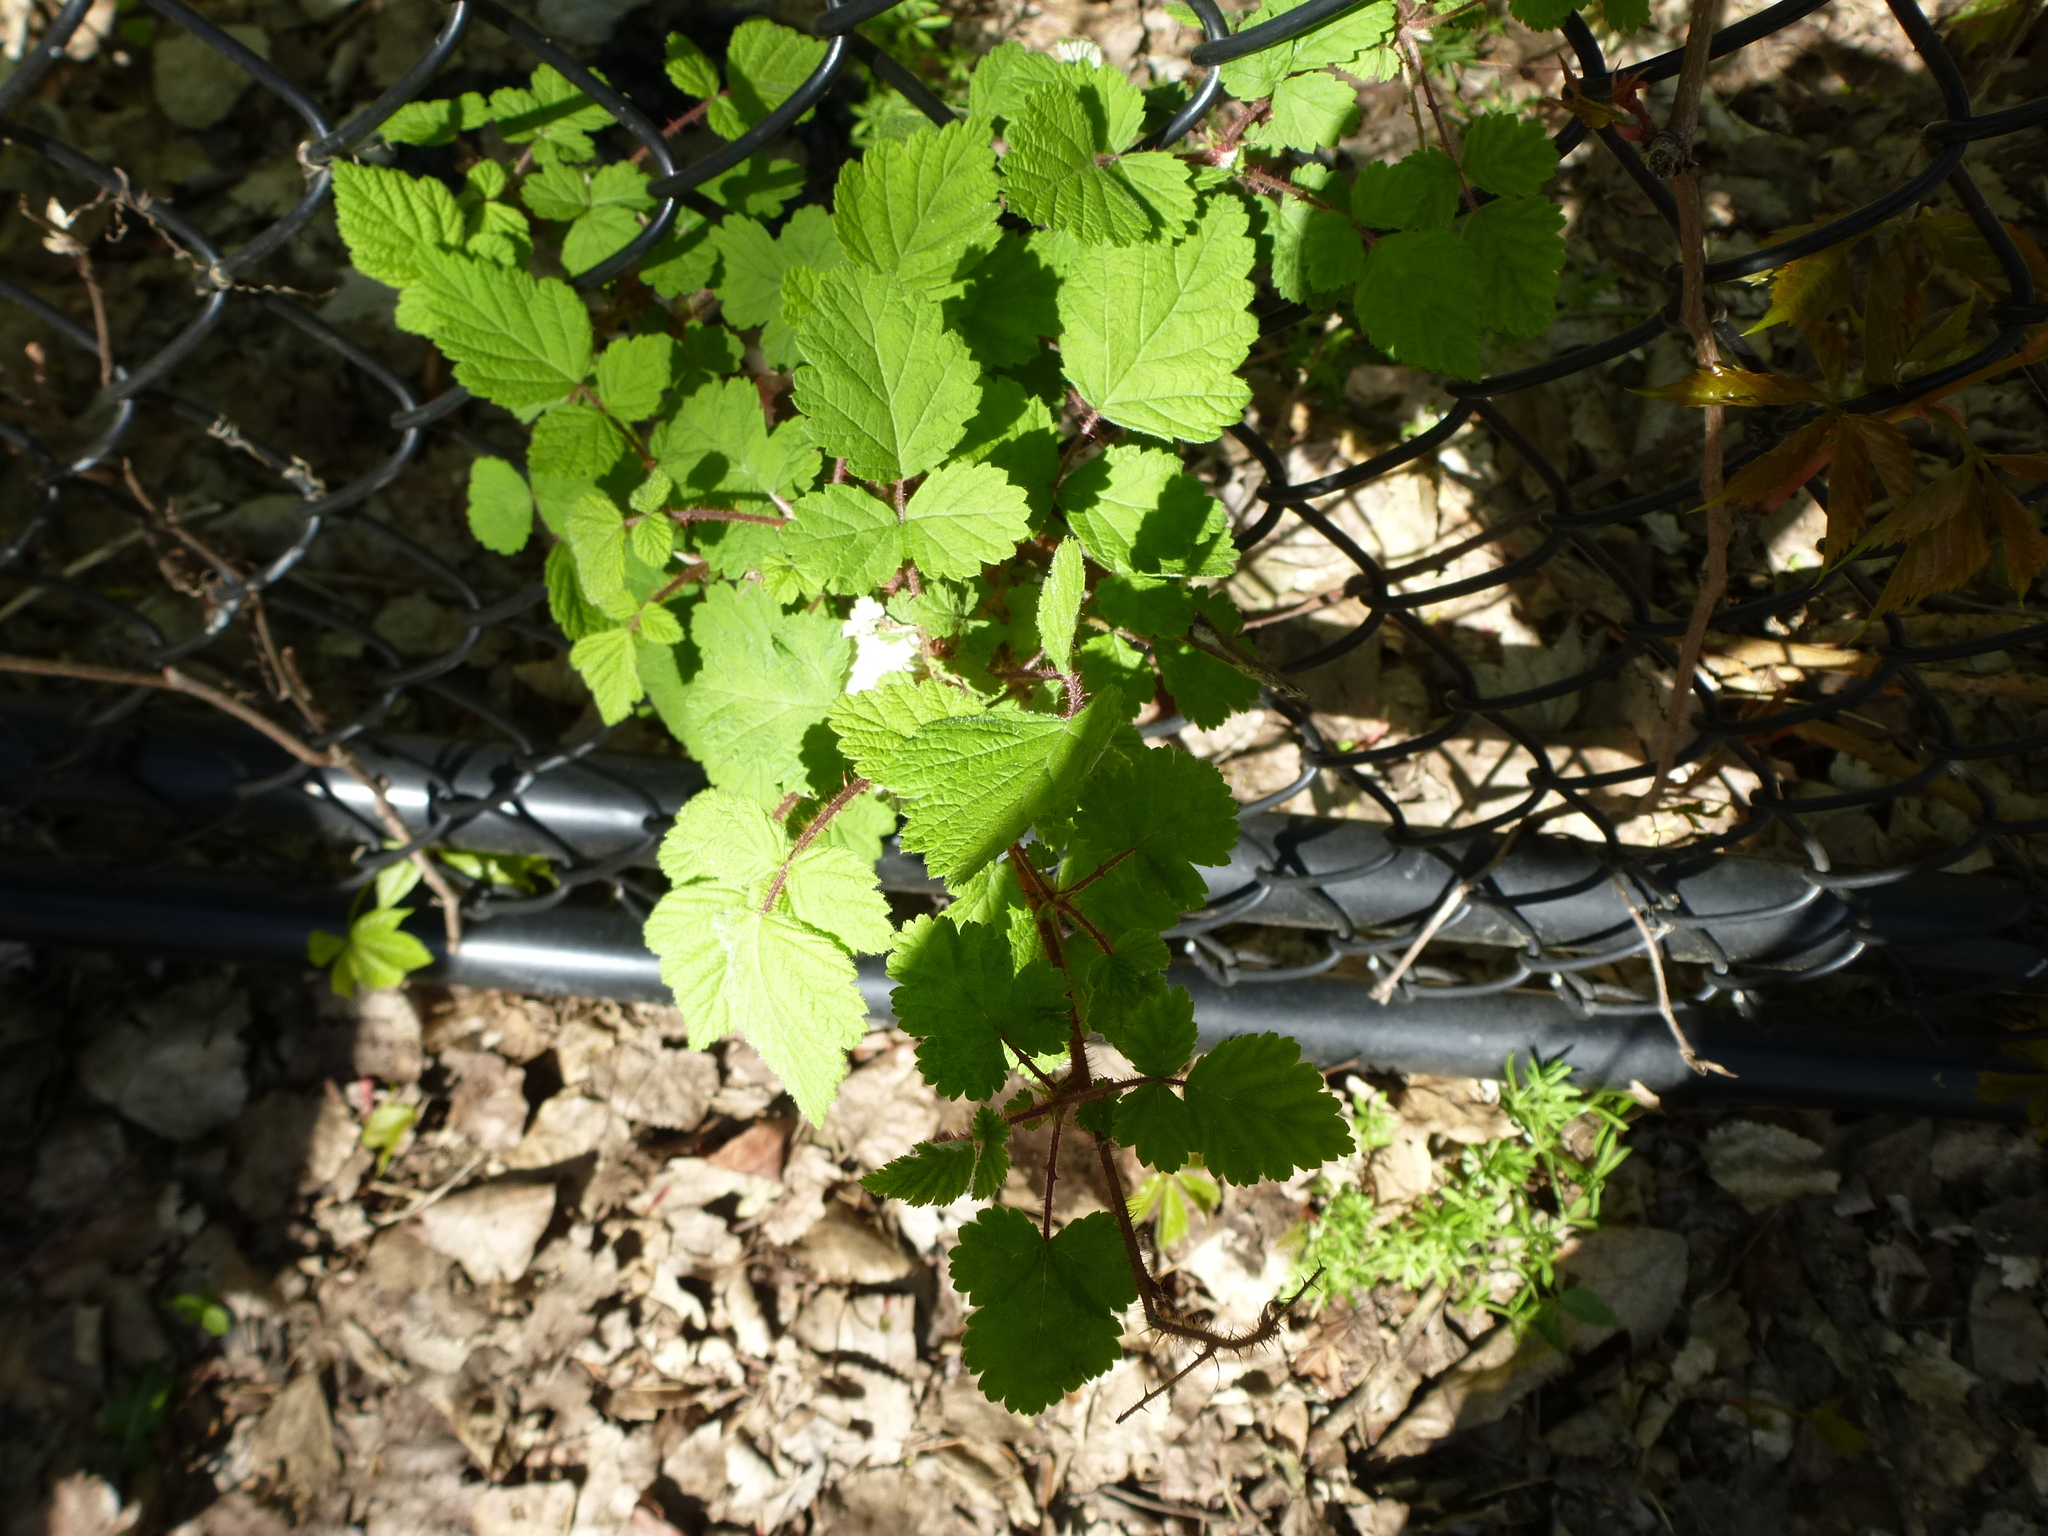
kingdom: Plantae
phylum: Tracheophyta
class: Magnoliopsida
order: Rosales
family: Rosaceae
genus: Rubus
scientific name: Rubus phoenicolasius
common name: Japanese wineberry
